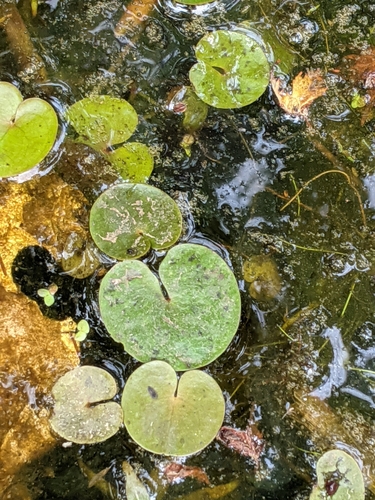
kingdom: Plantae
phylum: Tracheophyta
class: Liliopsida
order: Alismatales
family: Hydrocharitaceae
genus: Hydrocharis
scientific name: Hydrocharis morsus-ranae
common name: European frog-bit
